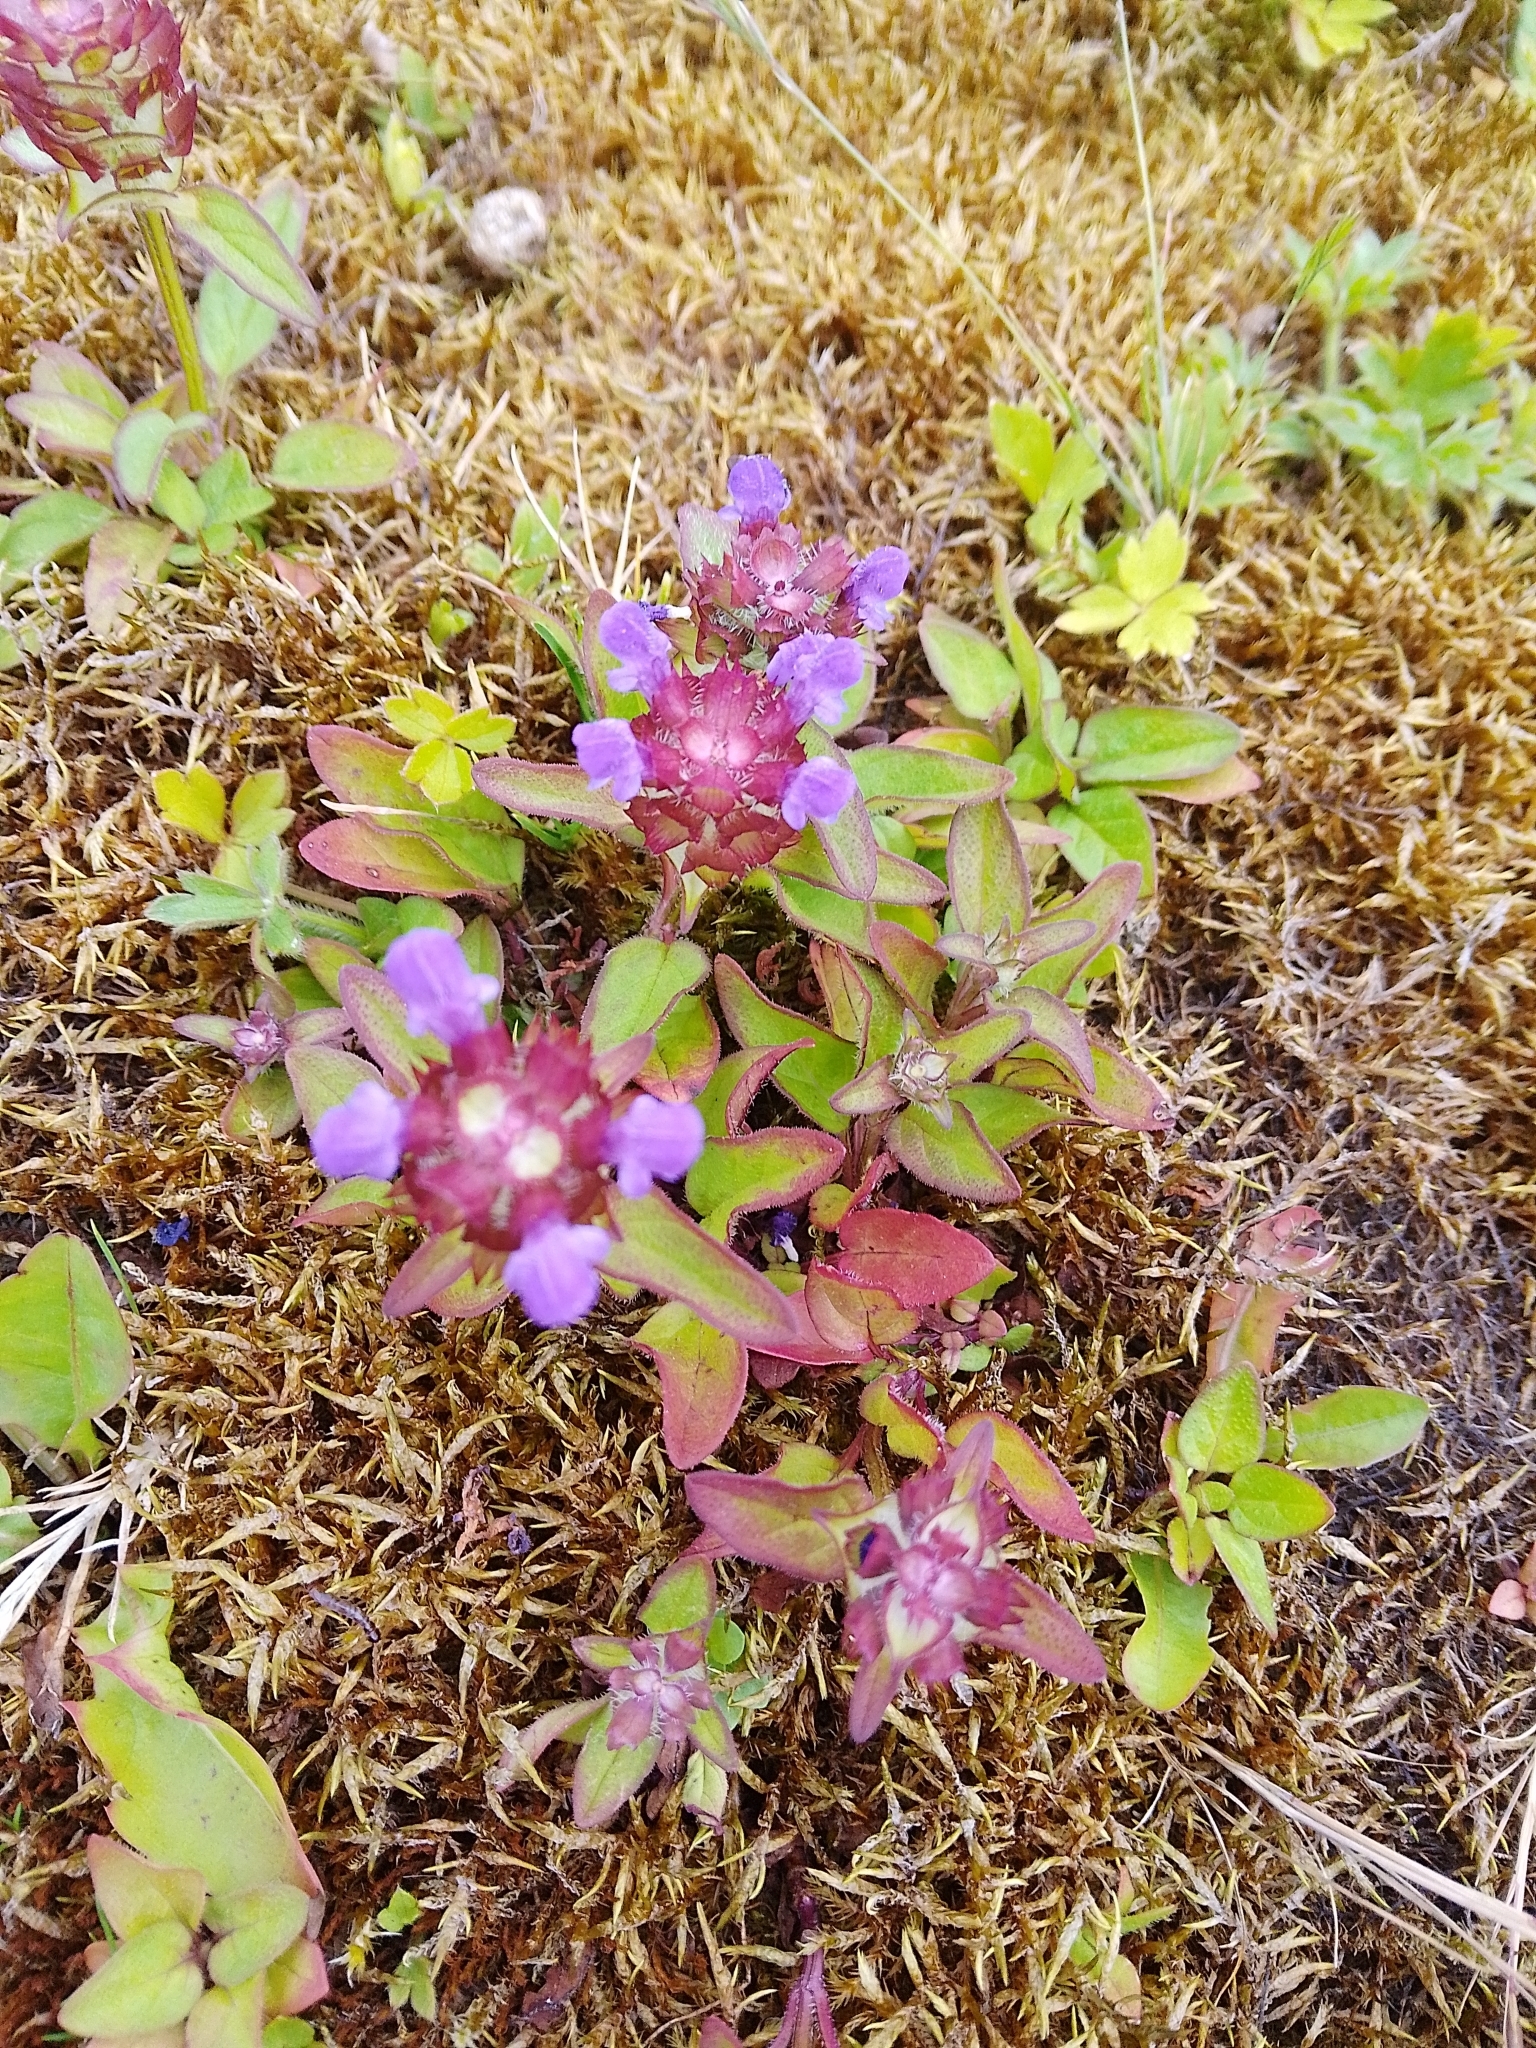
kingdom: Plantae
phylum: Tracheophyta
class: Magnoliopsida
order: Lamiales
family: Lamiaceae
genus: Prunella
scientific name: Prunella vulgaris
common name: Heal-all
